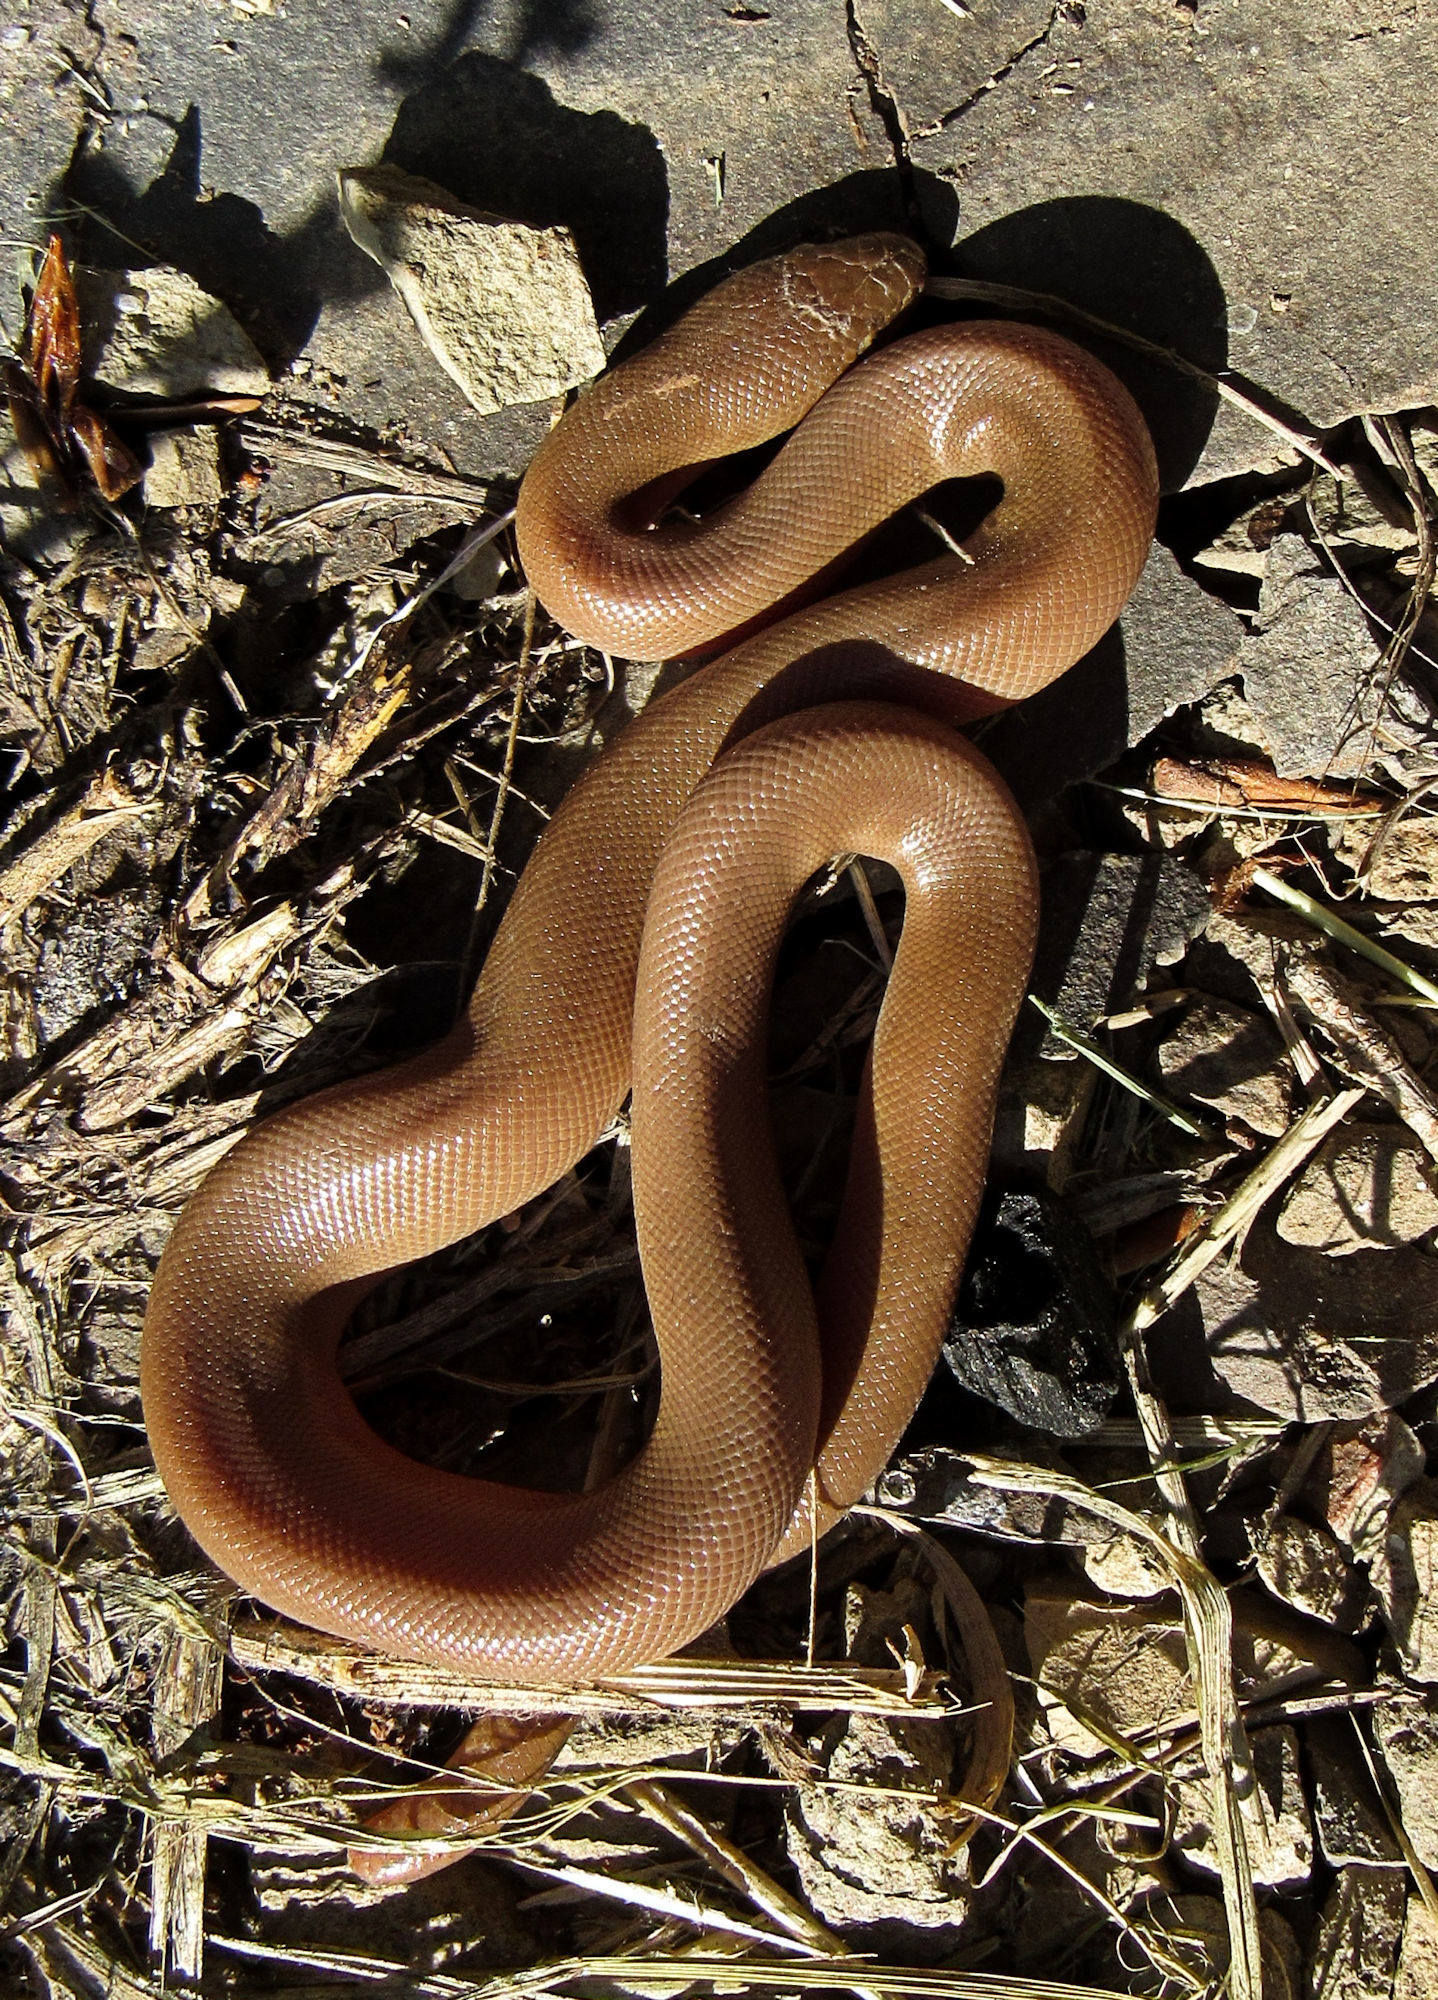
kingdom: Animalia
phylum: Chordata
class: Squamata
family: Boidae
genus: Charina
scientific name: Charina bottae
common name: Northern rubber boa
